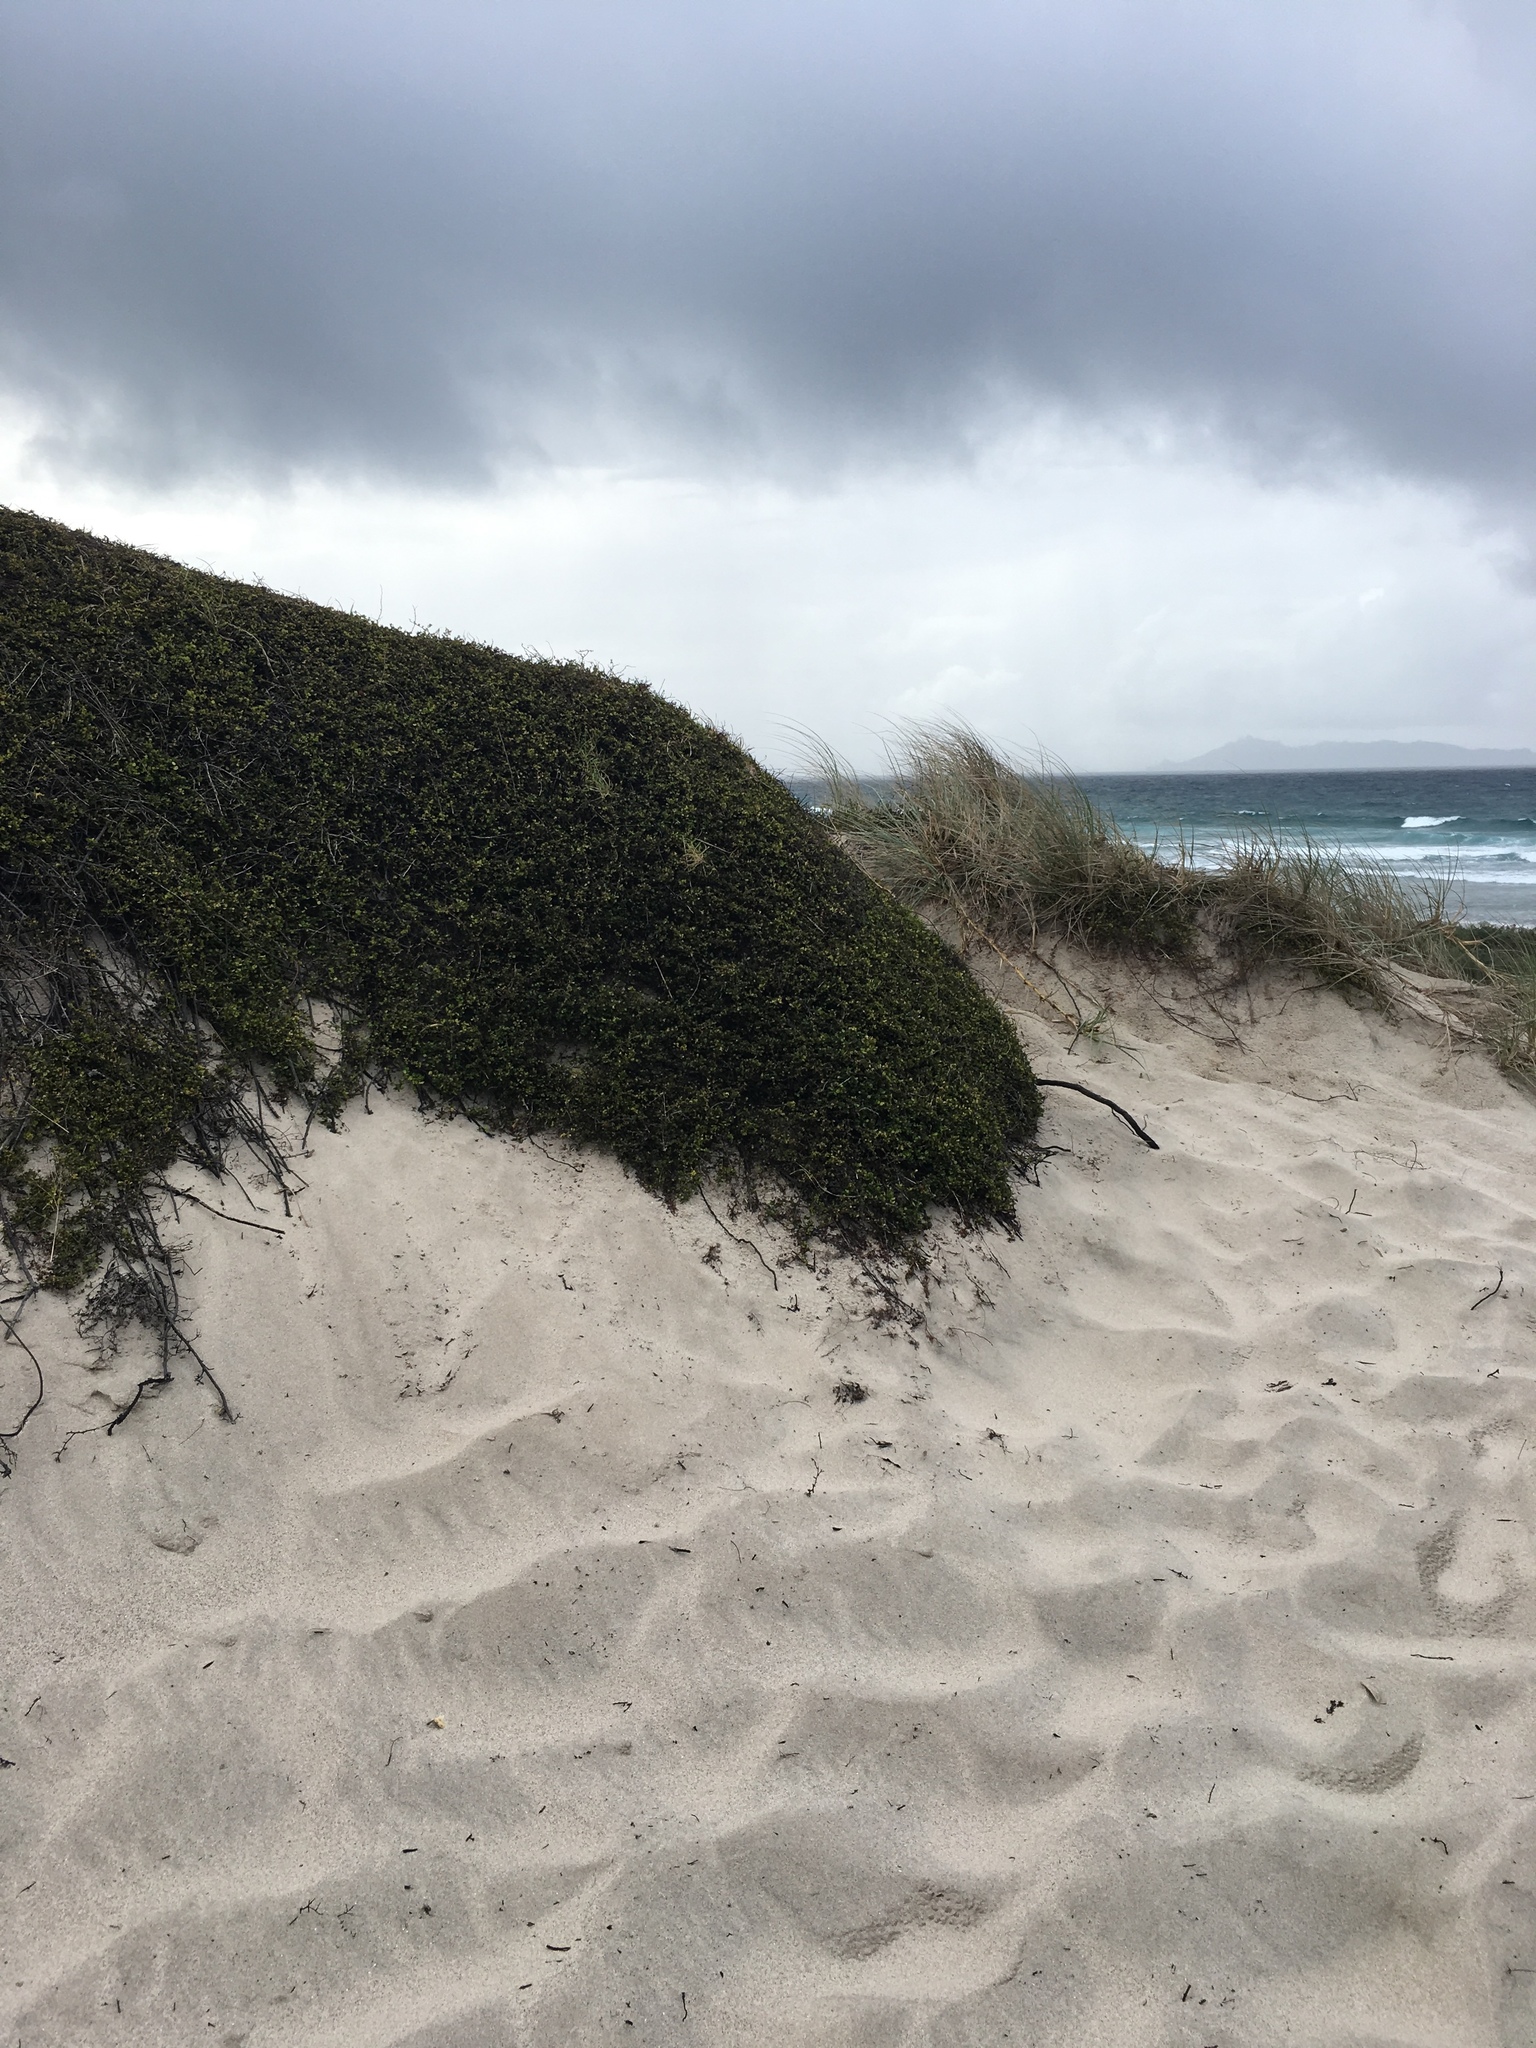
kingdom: Plantae
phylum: Tracheophyta
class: Magnoliopsida
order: Caryophyllales
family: Polygonaceae
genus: Muehlenbeckia
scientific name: Muehlenbeckia complexa
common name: Wireplant
